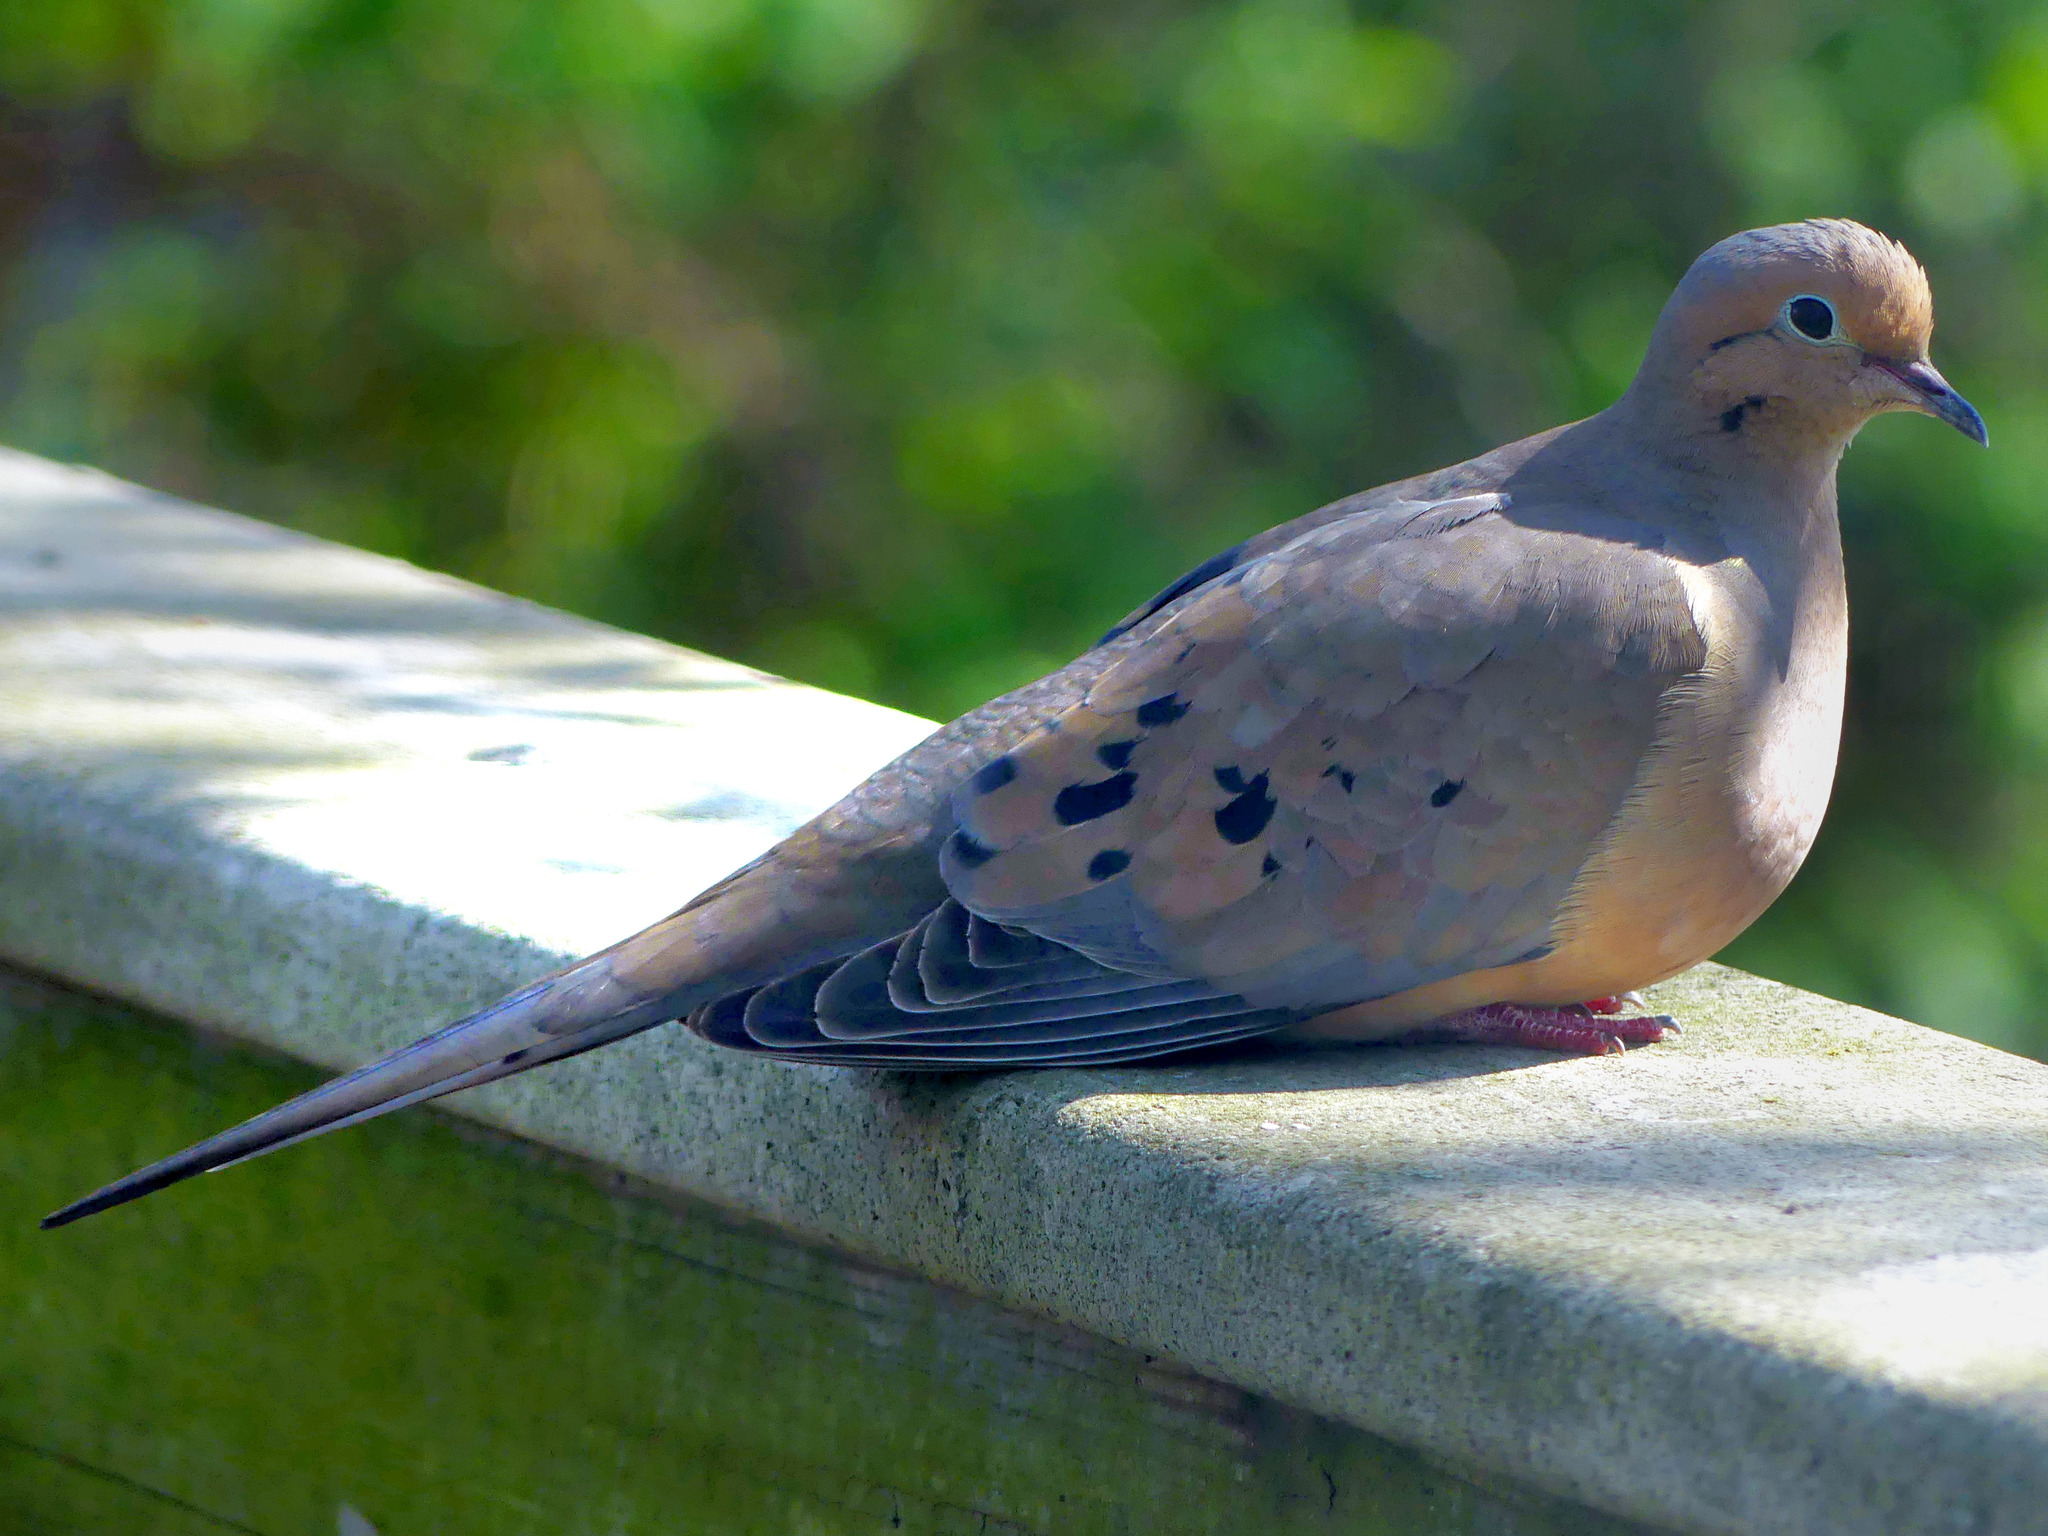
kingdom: Animalia
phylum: Chordata
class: Aves
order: Columbiformes
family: Columbidae
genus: Zenaida
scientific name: Zenaida macroura
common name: Mourning dove
